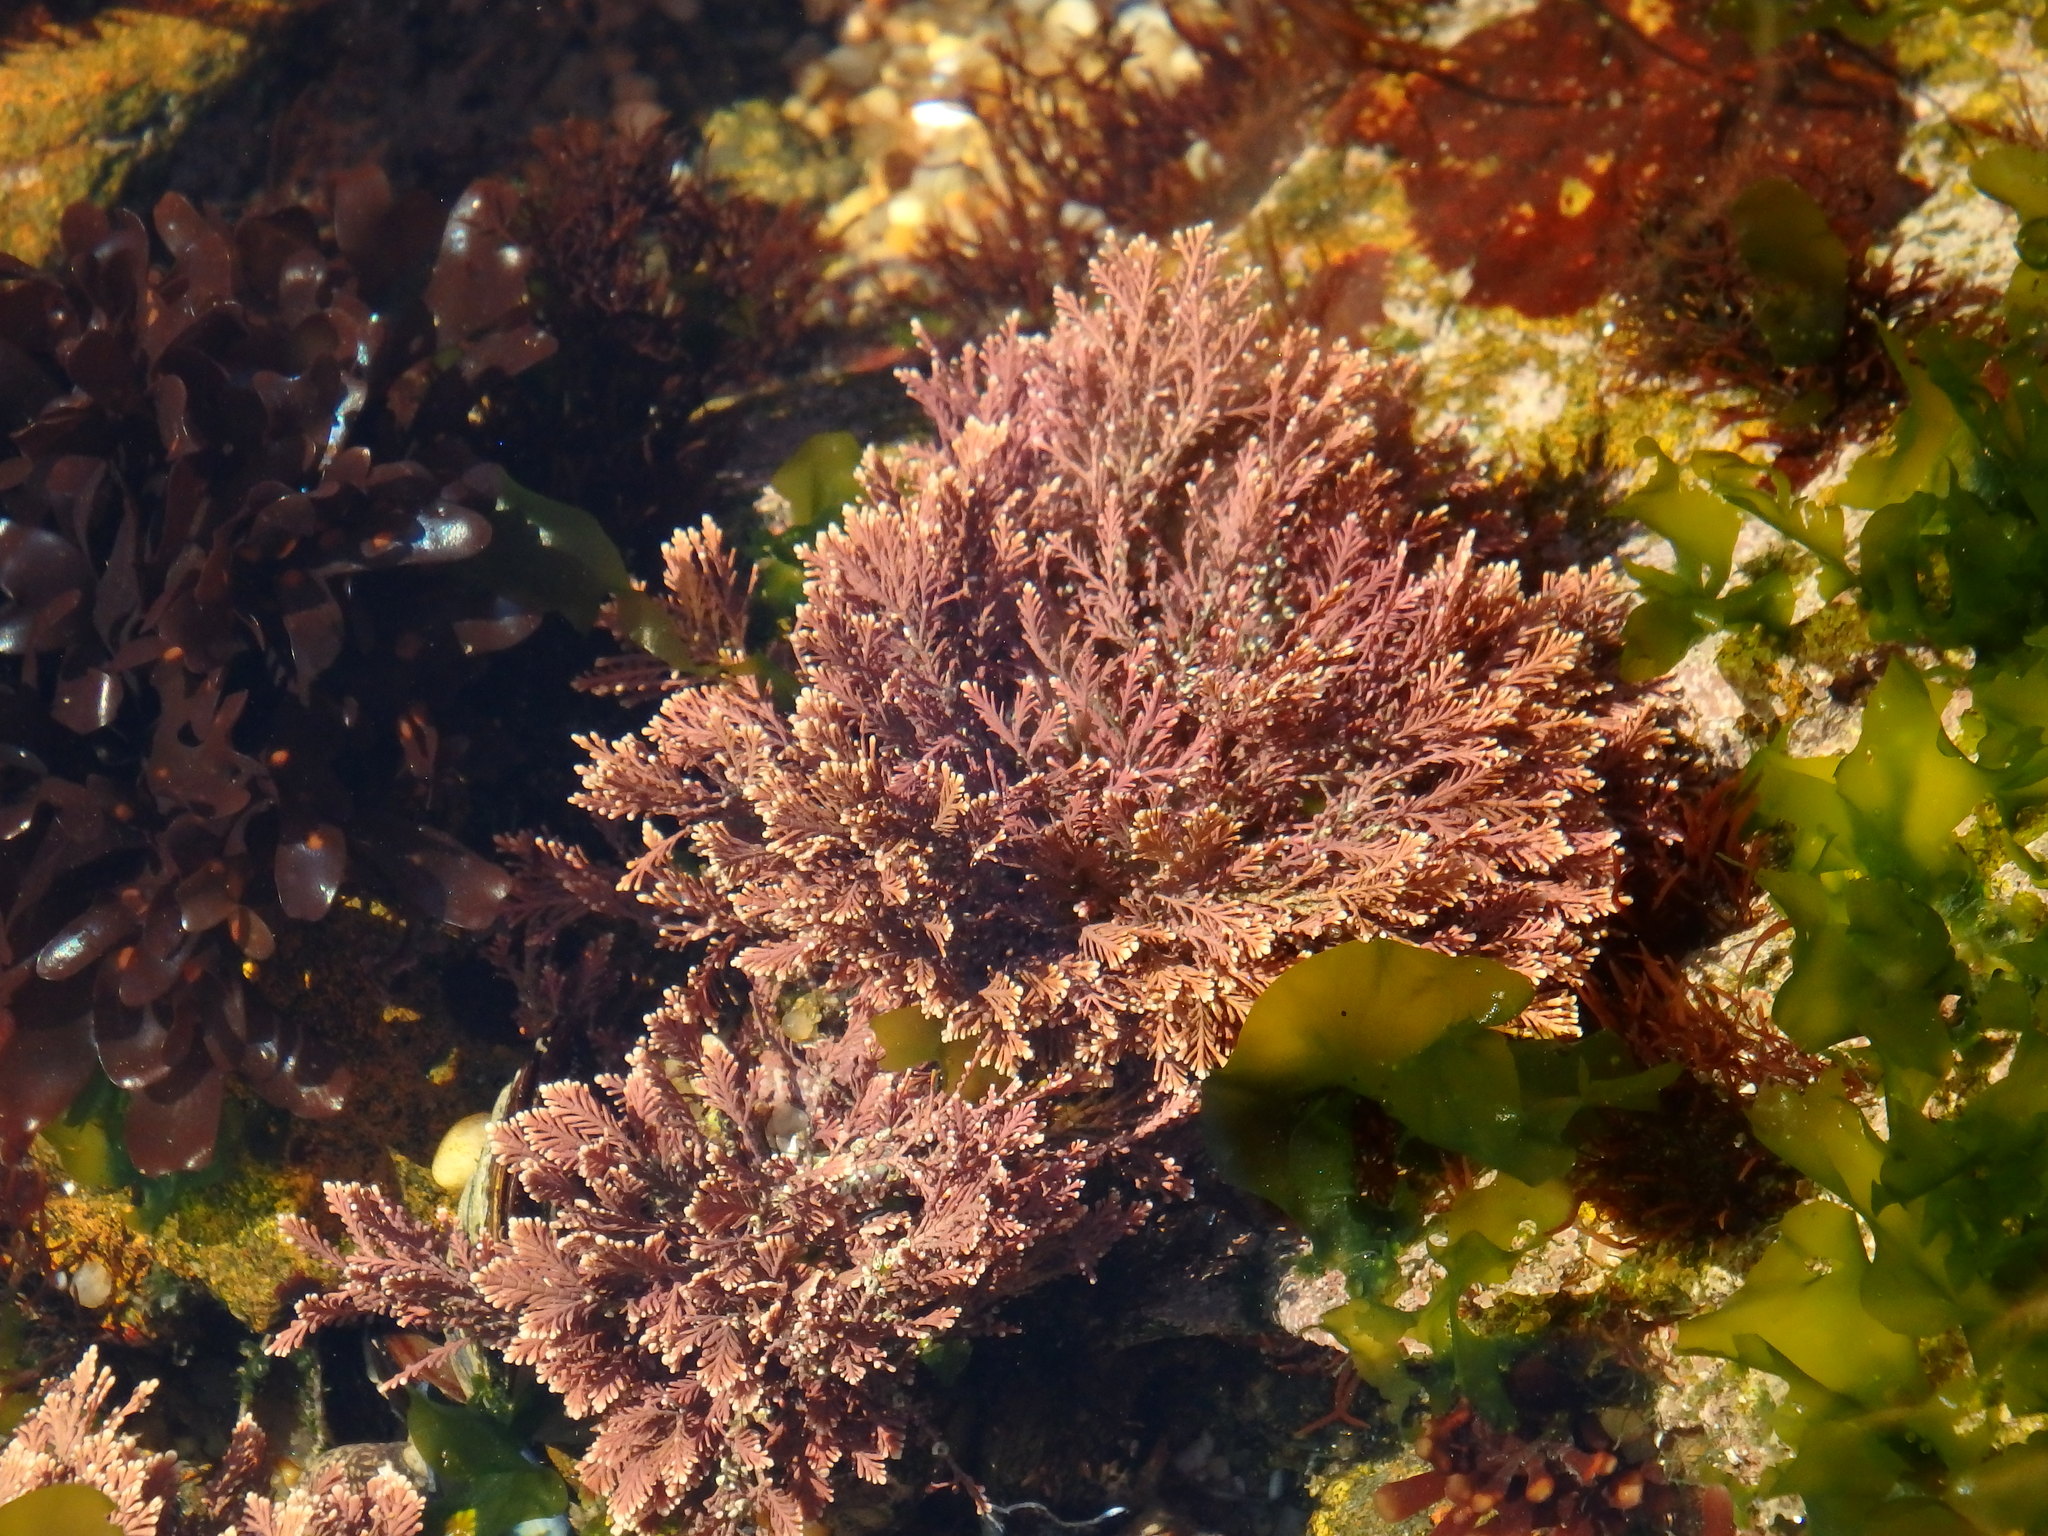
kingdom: Plantae
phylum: Rhodophyta
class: Florideophyceae
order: Corallinales
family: Corallinaceae
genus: Ellisolandia
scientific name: Ellisolandia elongata
